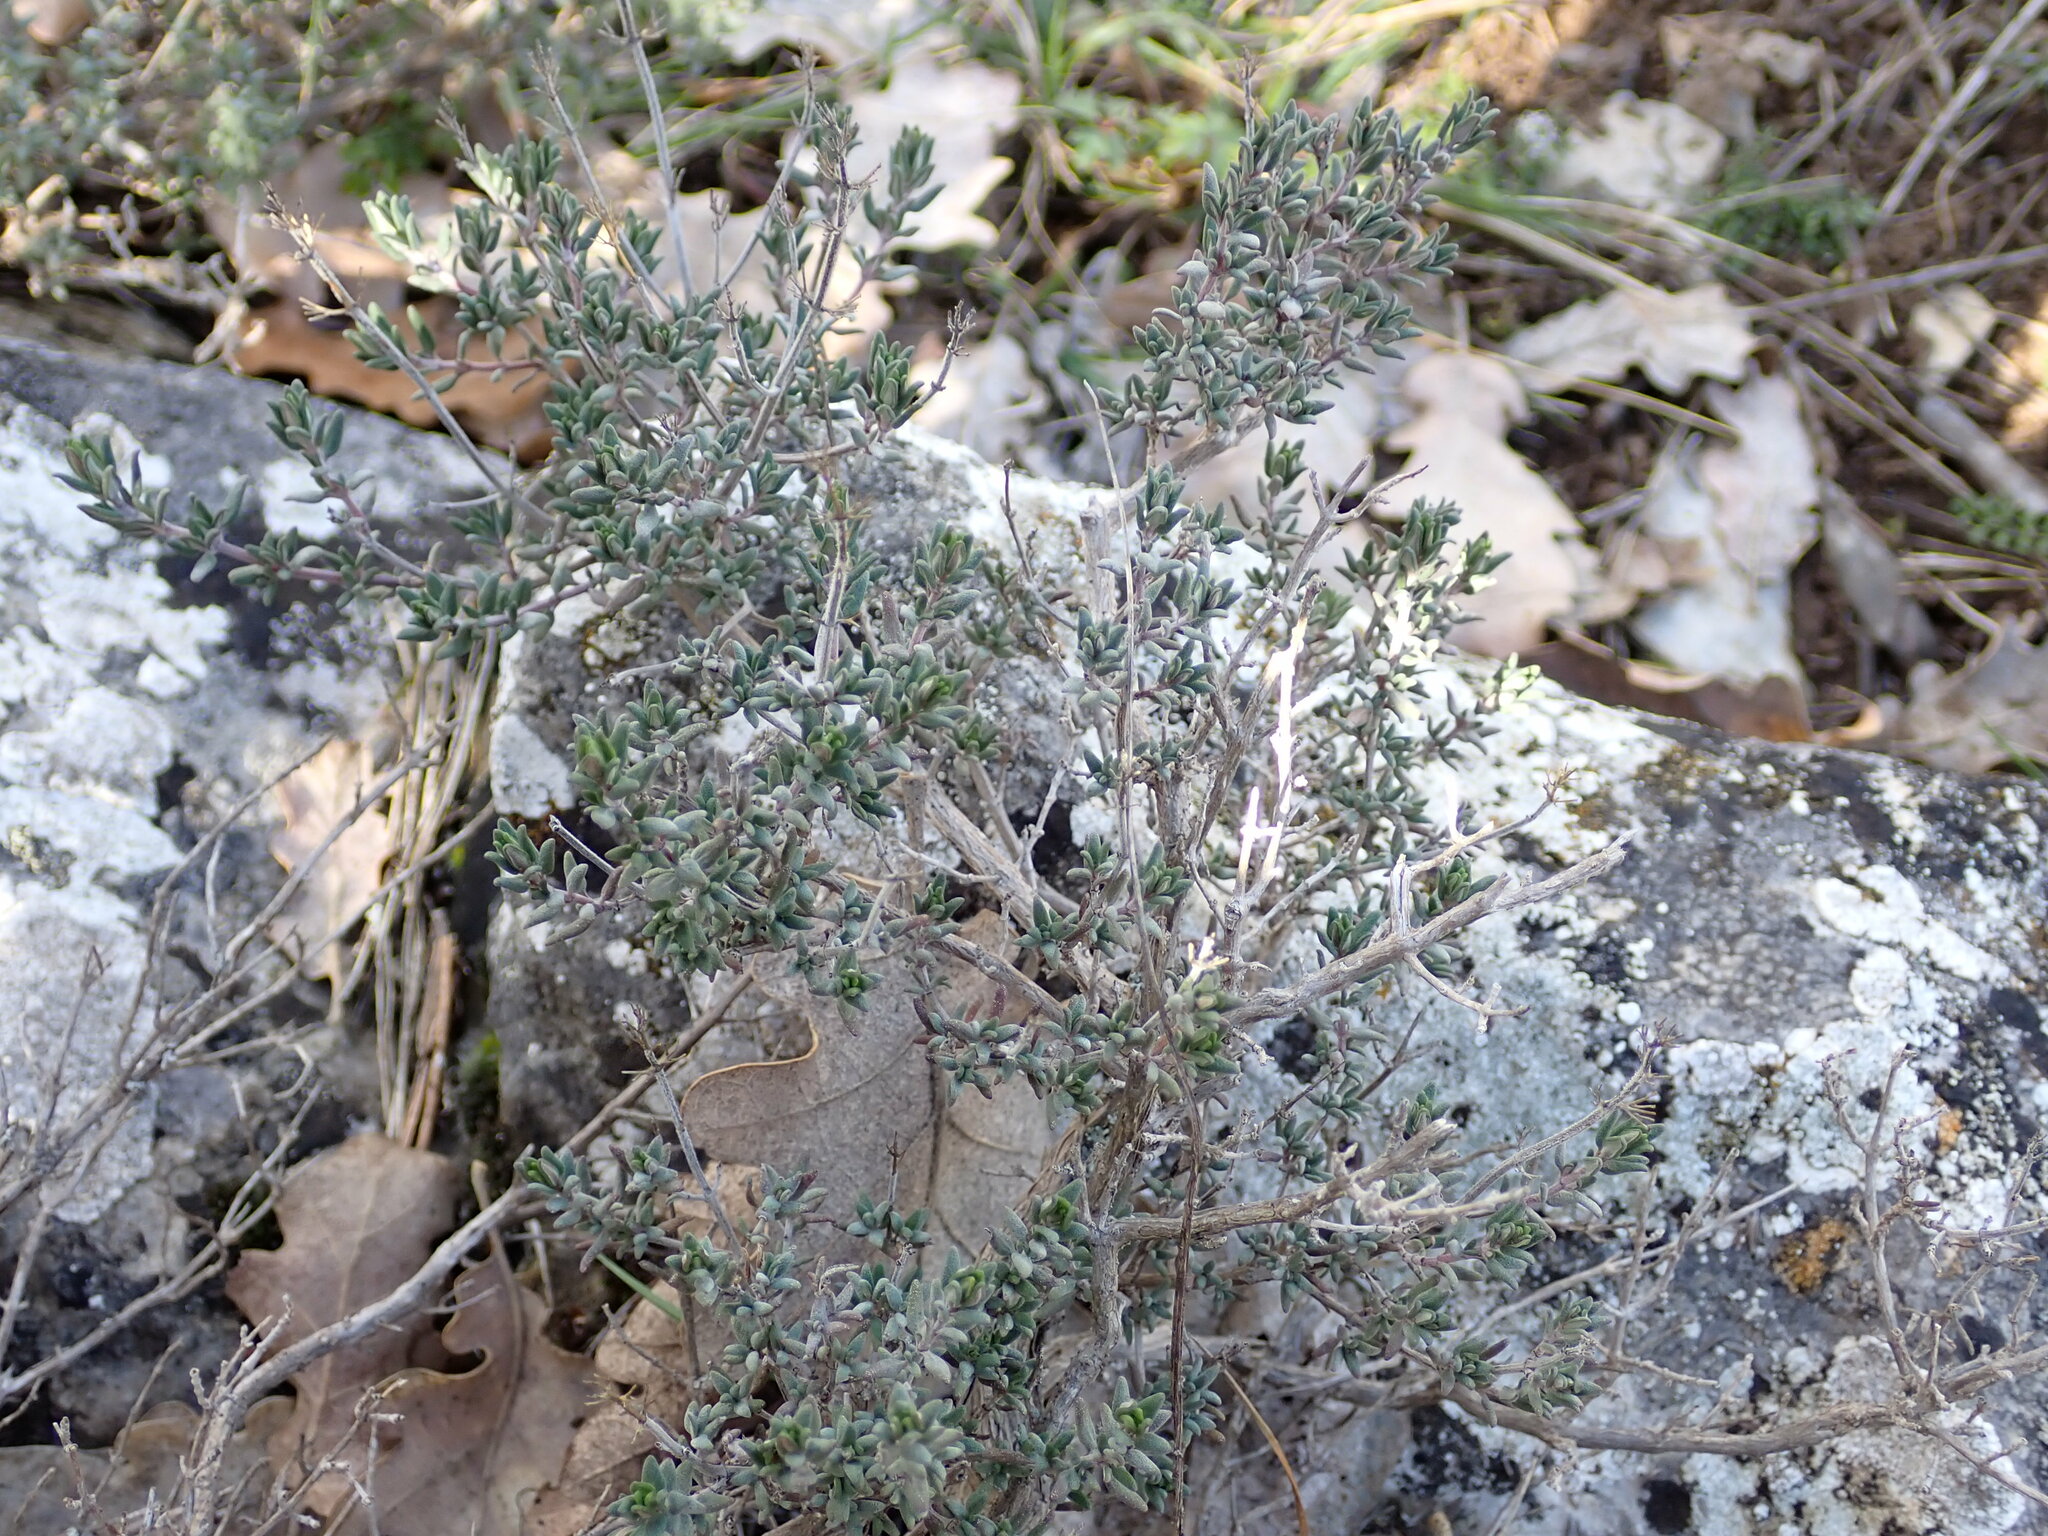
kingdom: Plantae
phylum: Tracheophyta
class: Magnoliopsida
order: Lamiales
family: Lamiaceae
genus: Thymus
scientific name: Thymus vulgaris
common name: Garden thyme
